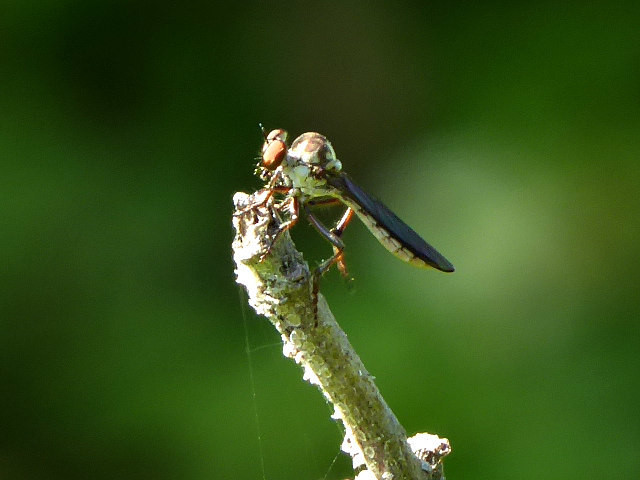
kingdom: Animalia
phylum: Arthropoda
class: Insecta
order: Diptera
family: Asilidae
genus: Holcocephala
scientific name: Holcocephala calva
